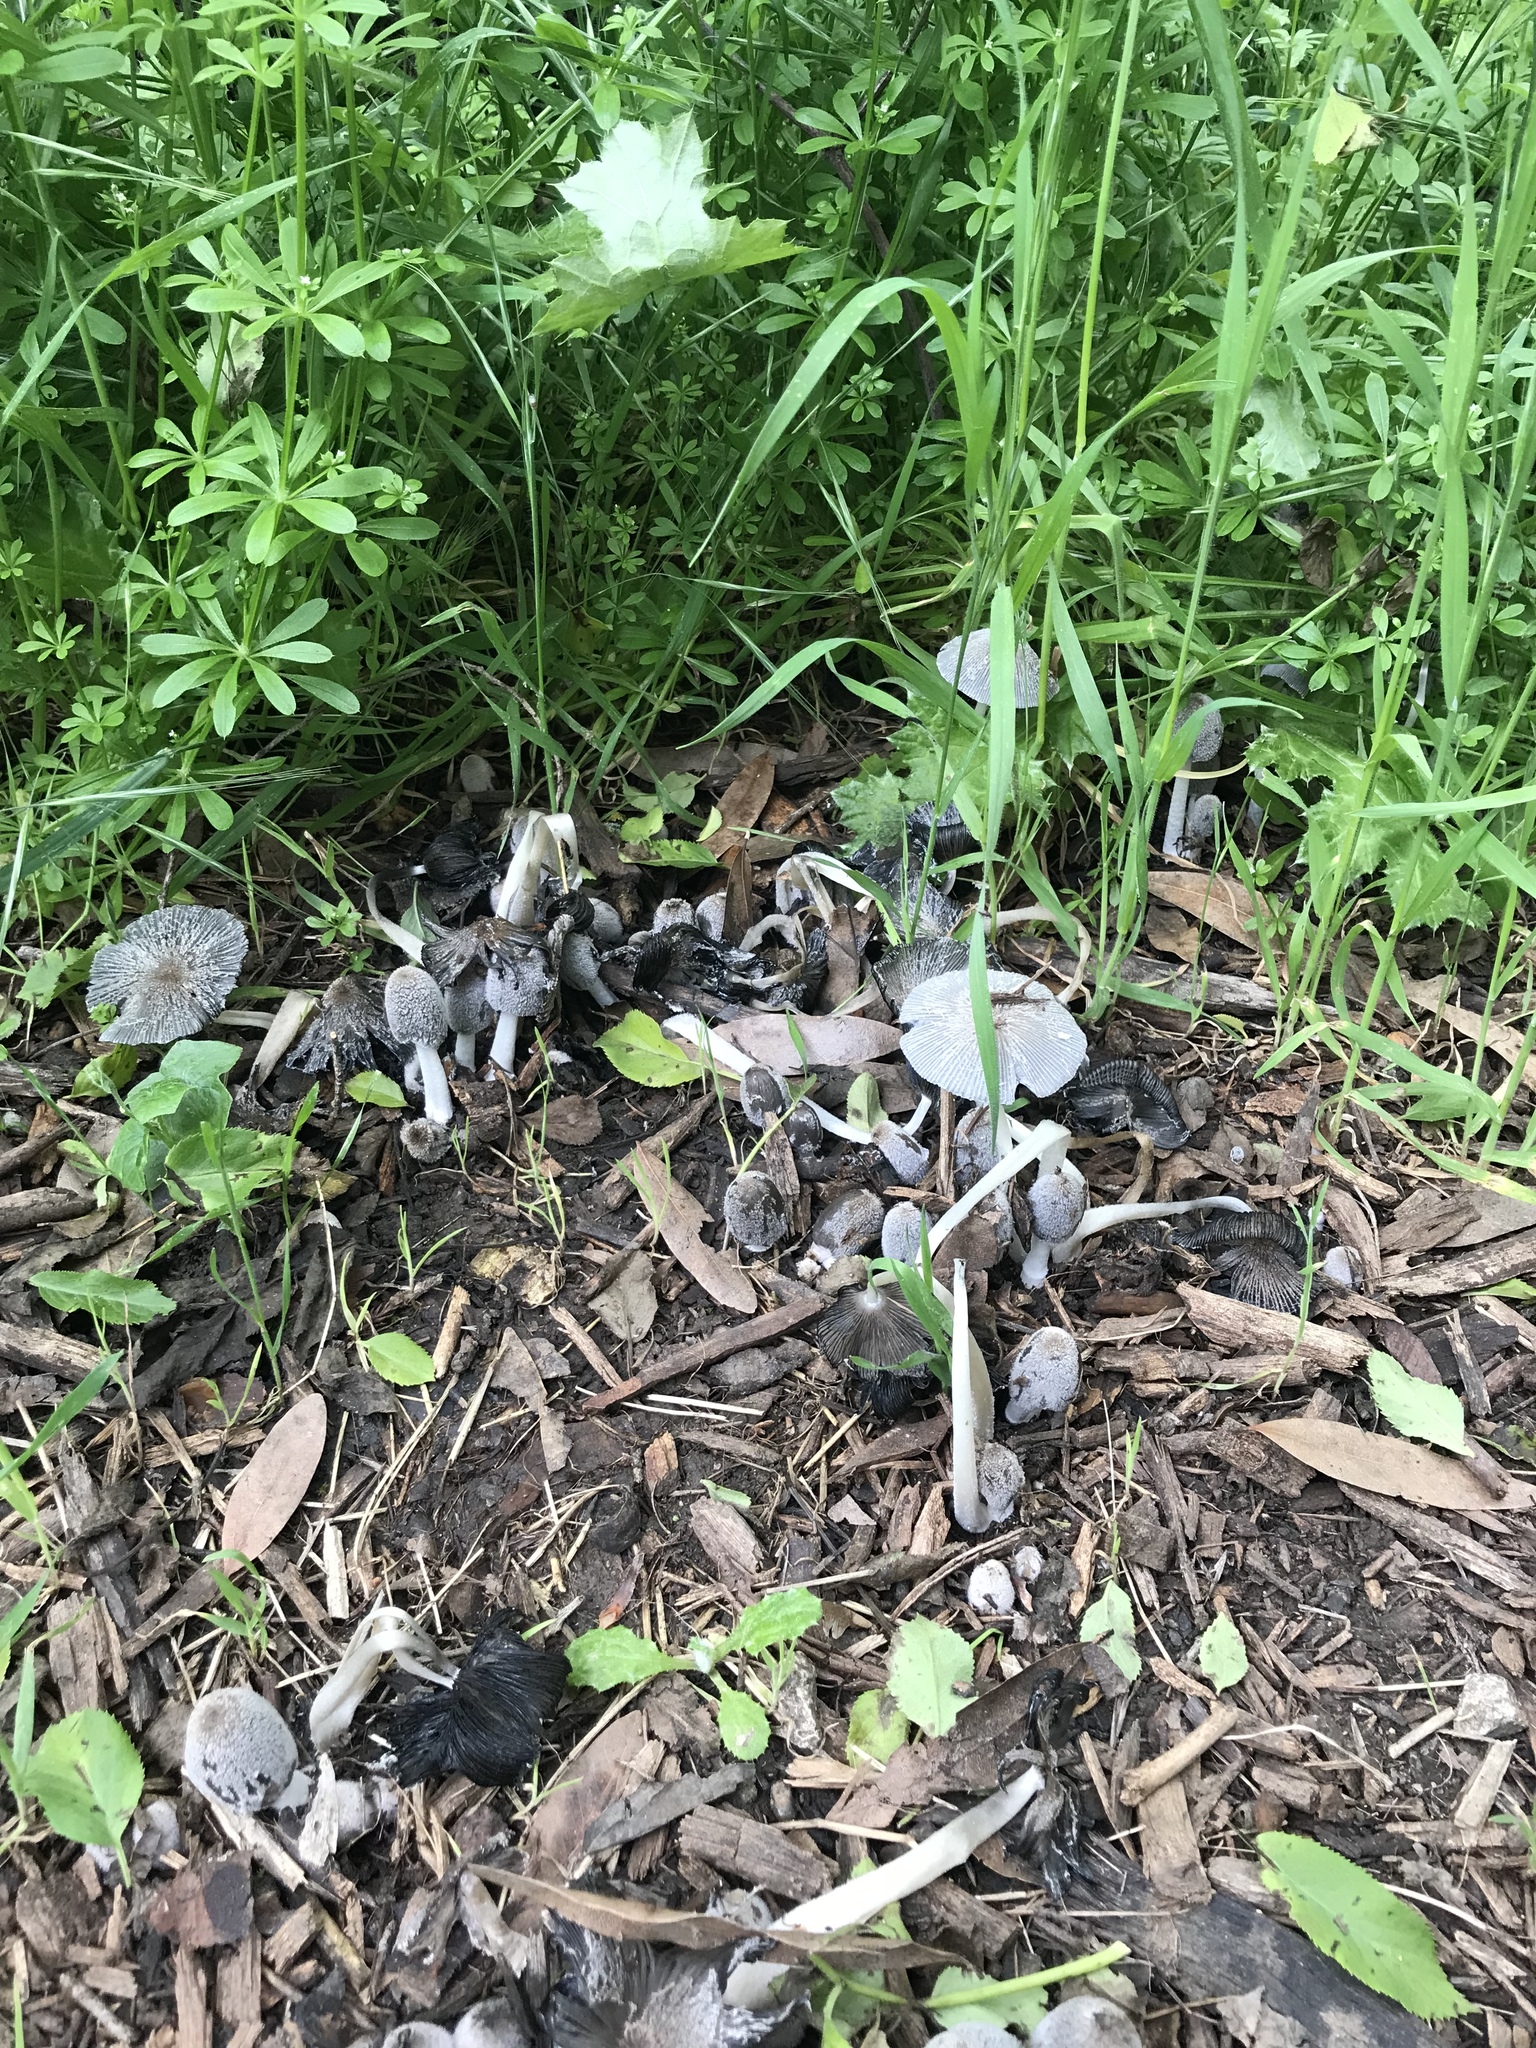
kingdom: Fungi
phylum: Basidiomycota
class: Agaricomycetes
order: Agaricales
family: Psathyrellaceae
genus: Coprinopsis
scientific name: Coprinopsis lagopus
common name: Hare'sfoot inkcap
